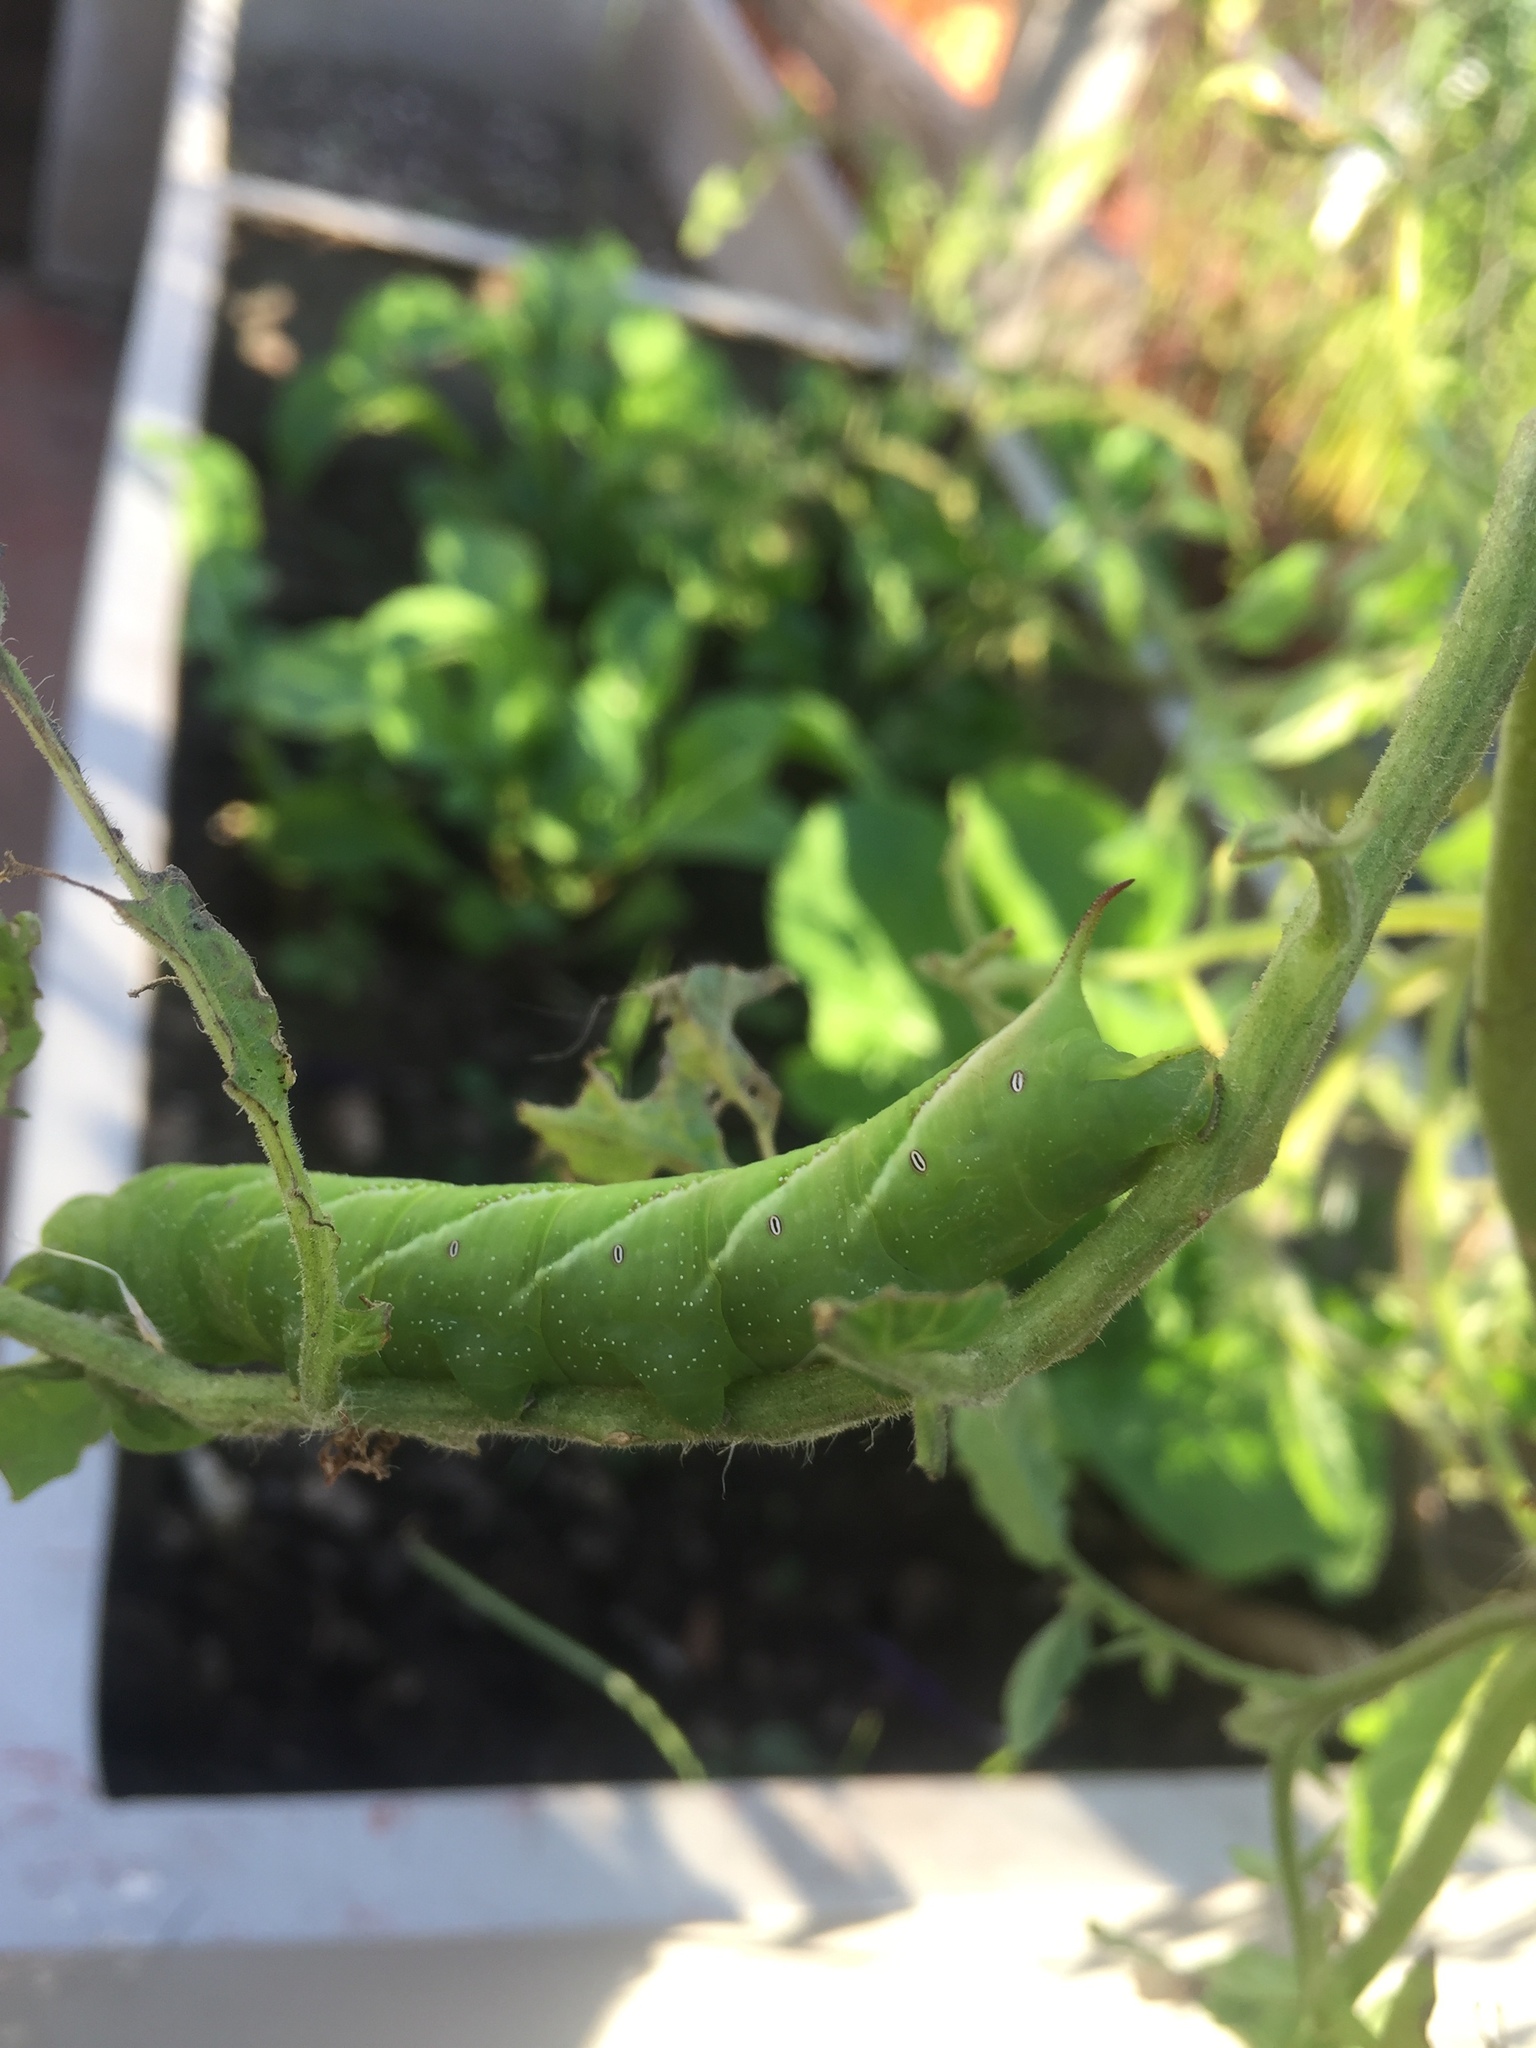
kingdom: Animalia
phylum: Arthropoda
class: Insecta
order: Lepidoptera
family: Sphingidae
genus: Manduca
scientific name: Manduca afflicta
